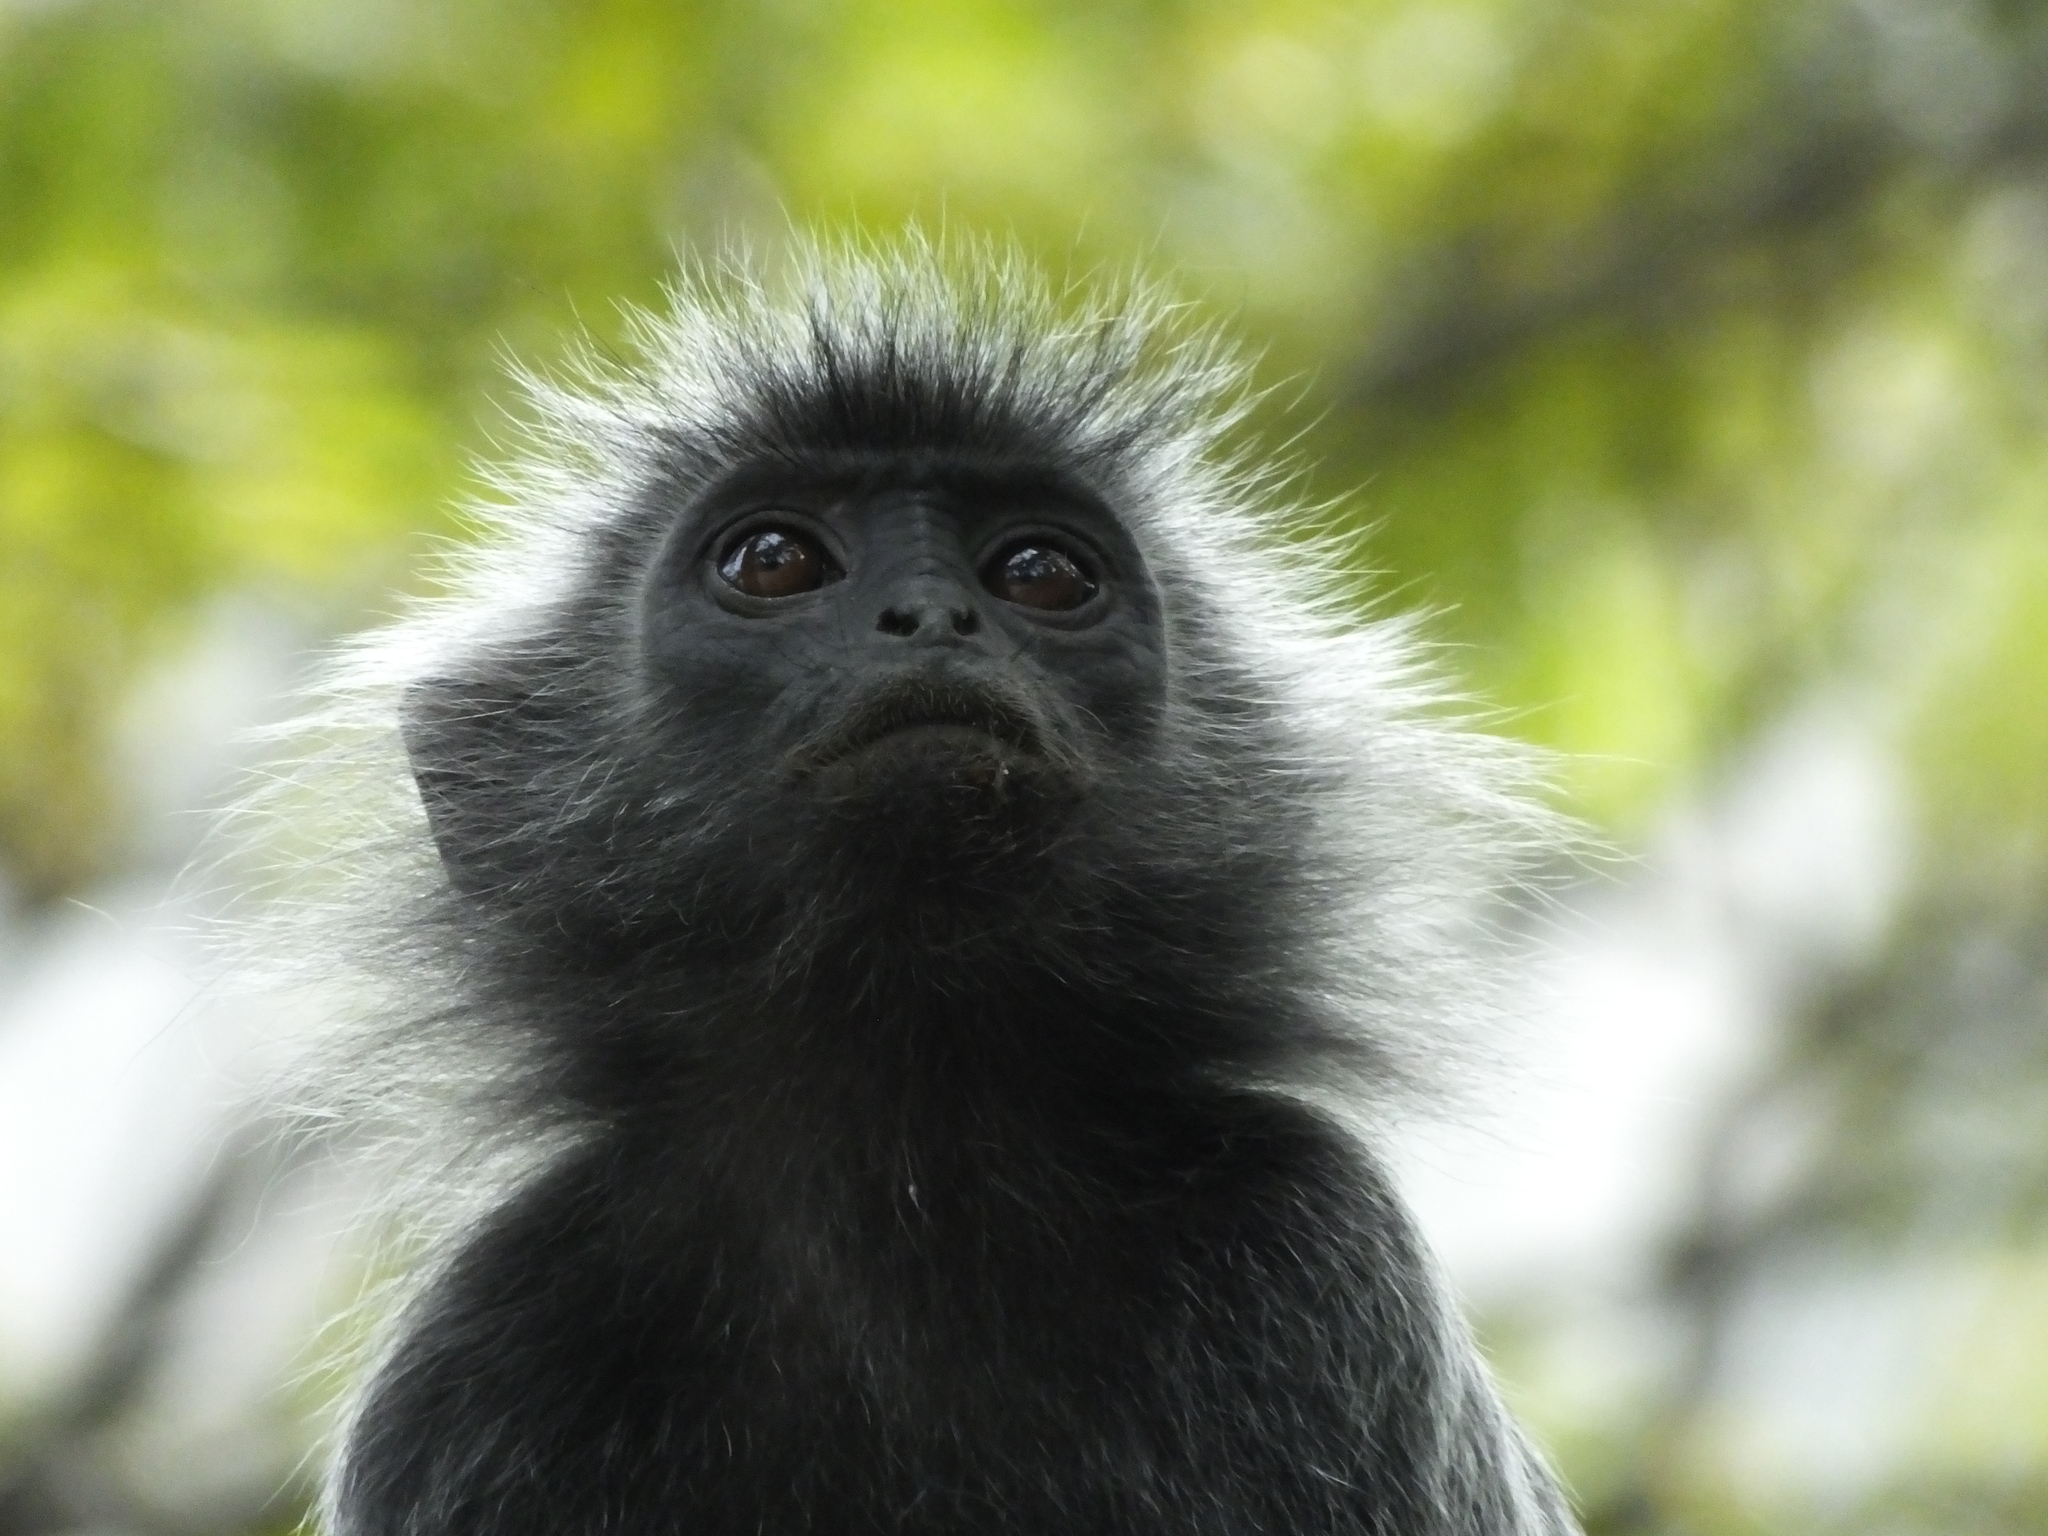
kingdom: Animalia
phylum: Chordata
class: Mammalia
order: Primates
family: Cercopithecidae
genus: Trachypithecus
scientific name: Trachypithecus selangorensis
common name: Selangor silvery langur
